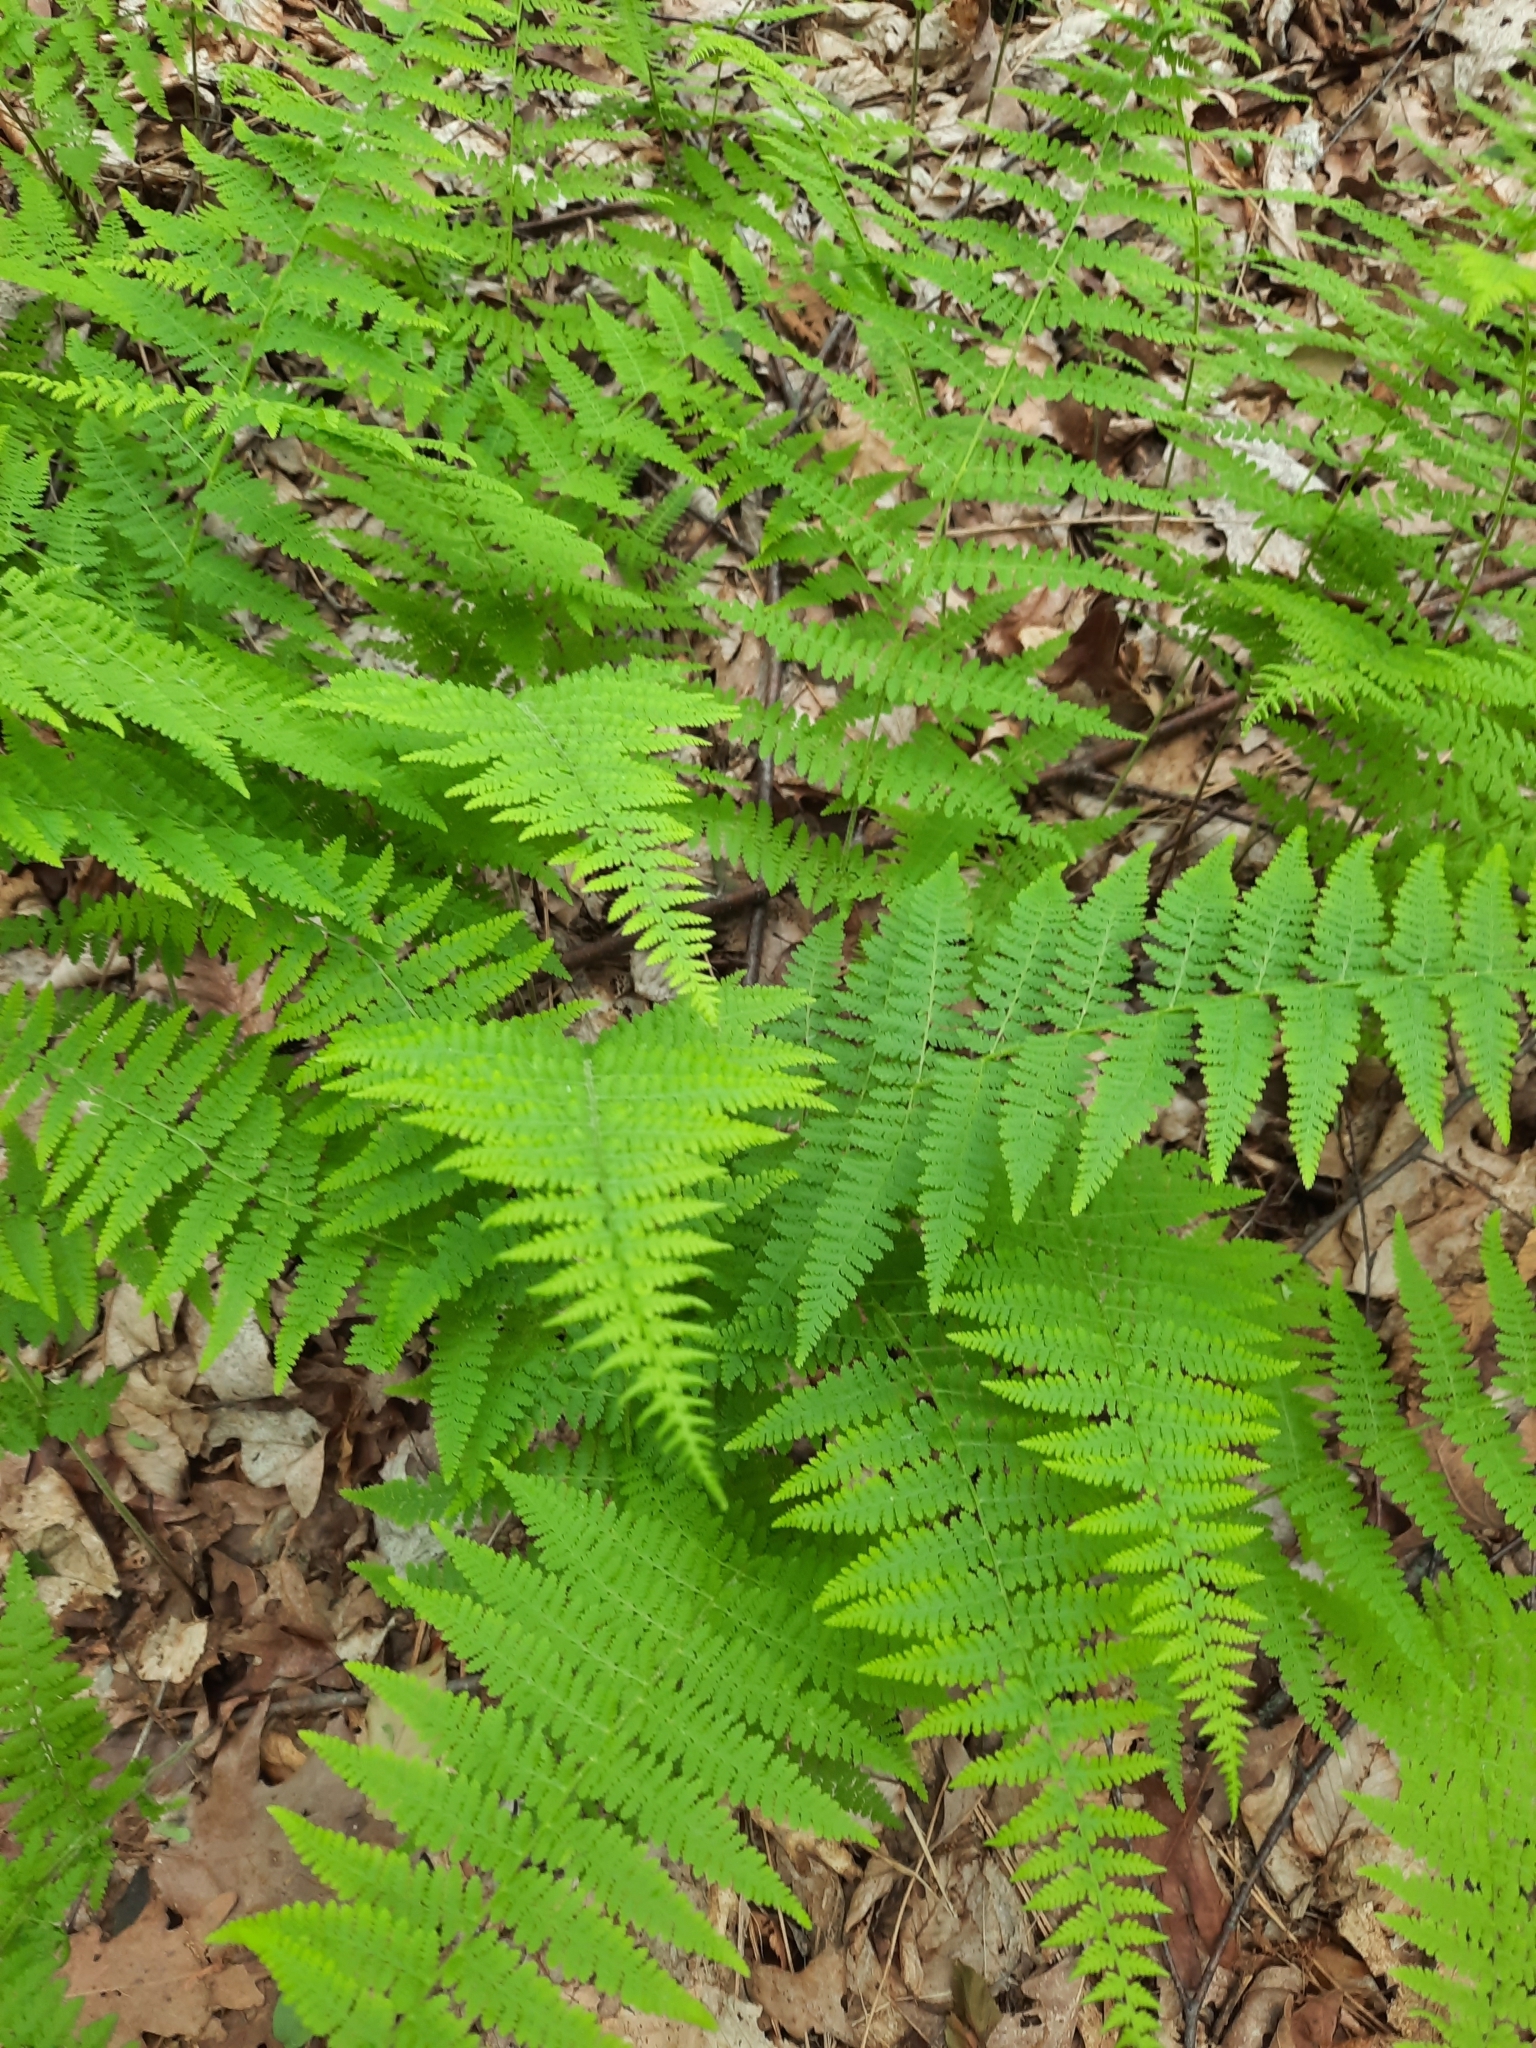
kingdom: Plantae
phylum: Tracheophyta
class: Polypodiopsida
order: Polypodiales
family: Dennstaedtiaceae
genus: Sitobolium
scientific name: Sitobolium punctilobum
